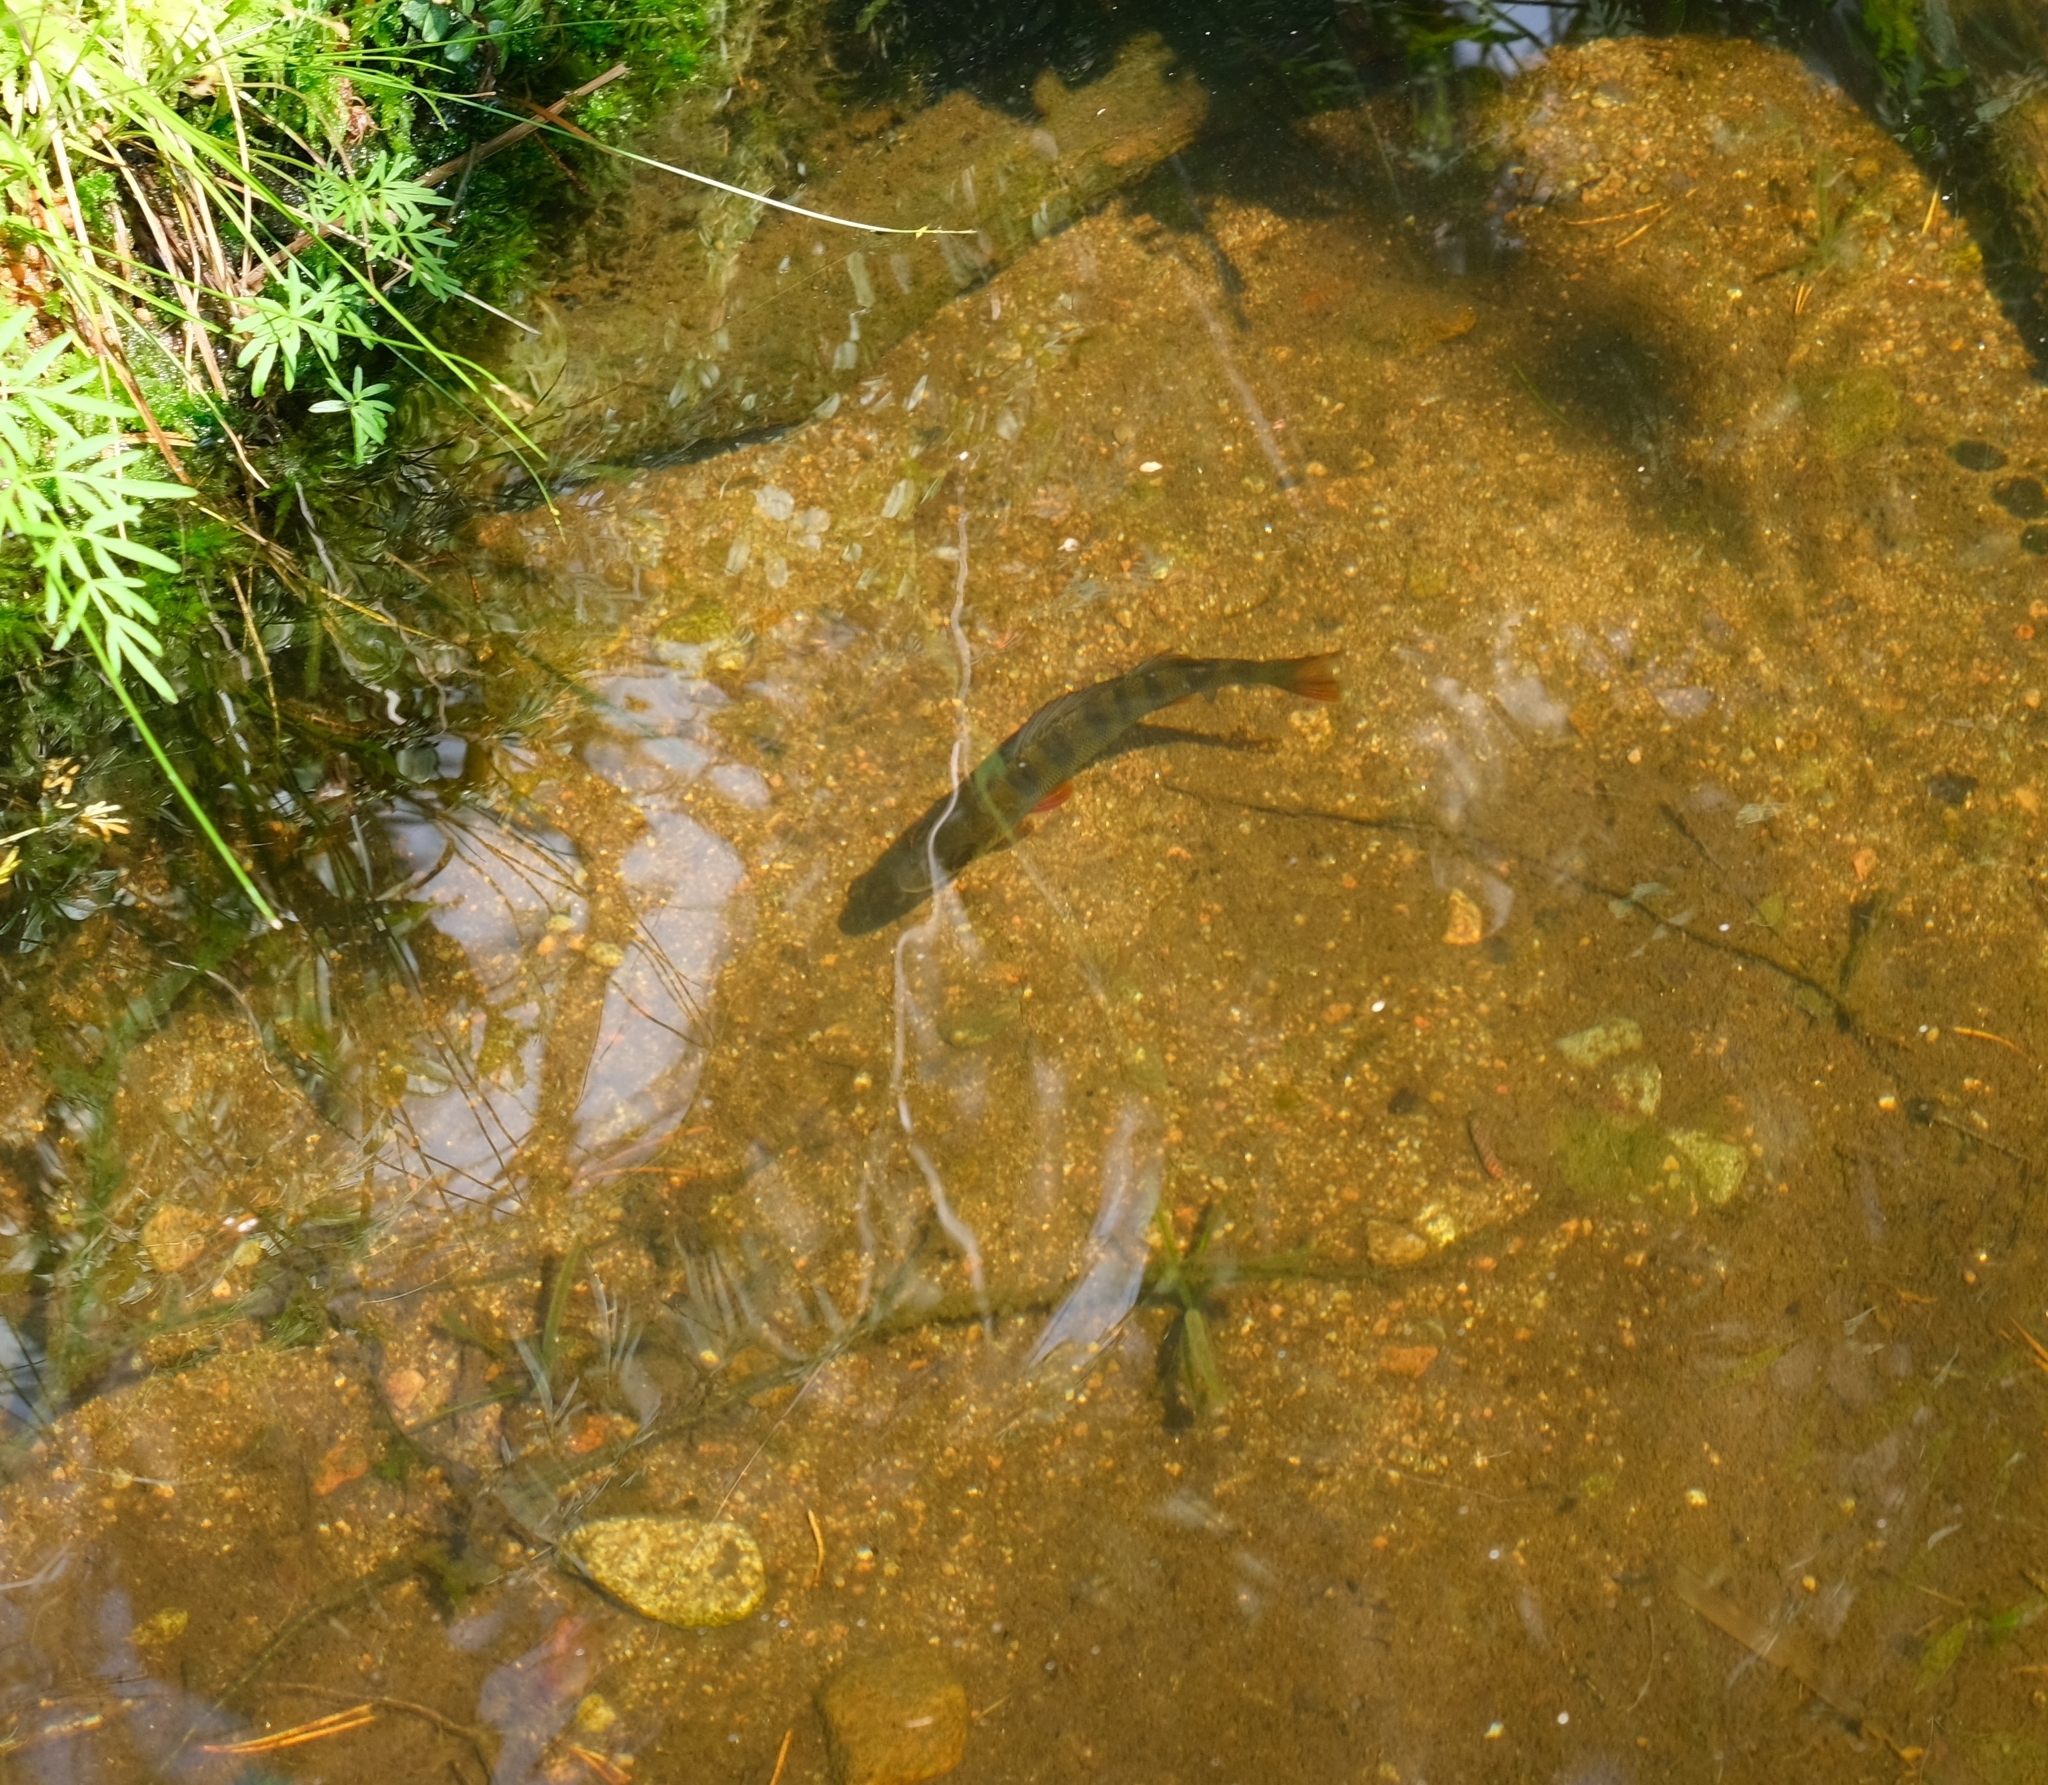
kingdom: Animalia
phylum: Chordata
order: Perciformes
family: Percidae
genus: Perca
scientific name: Perca fluviatilis
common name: Perch
